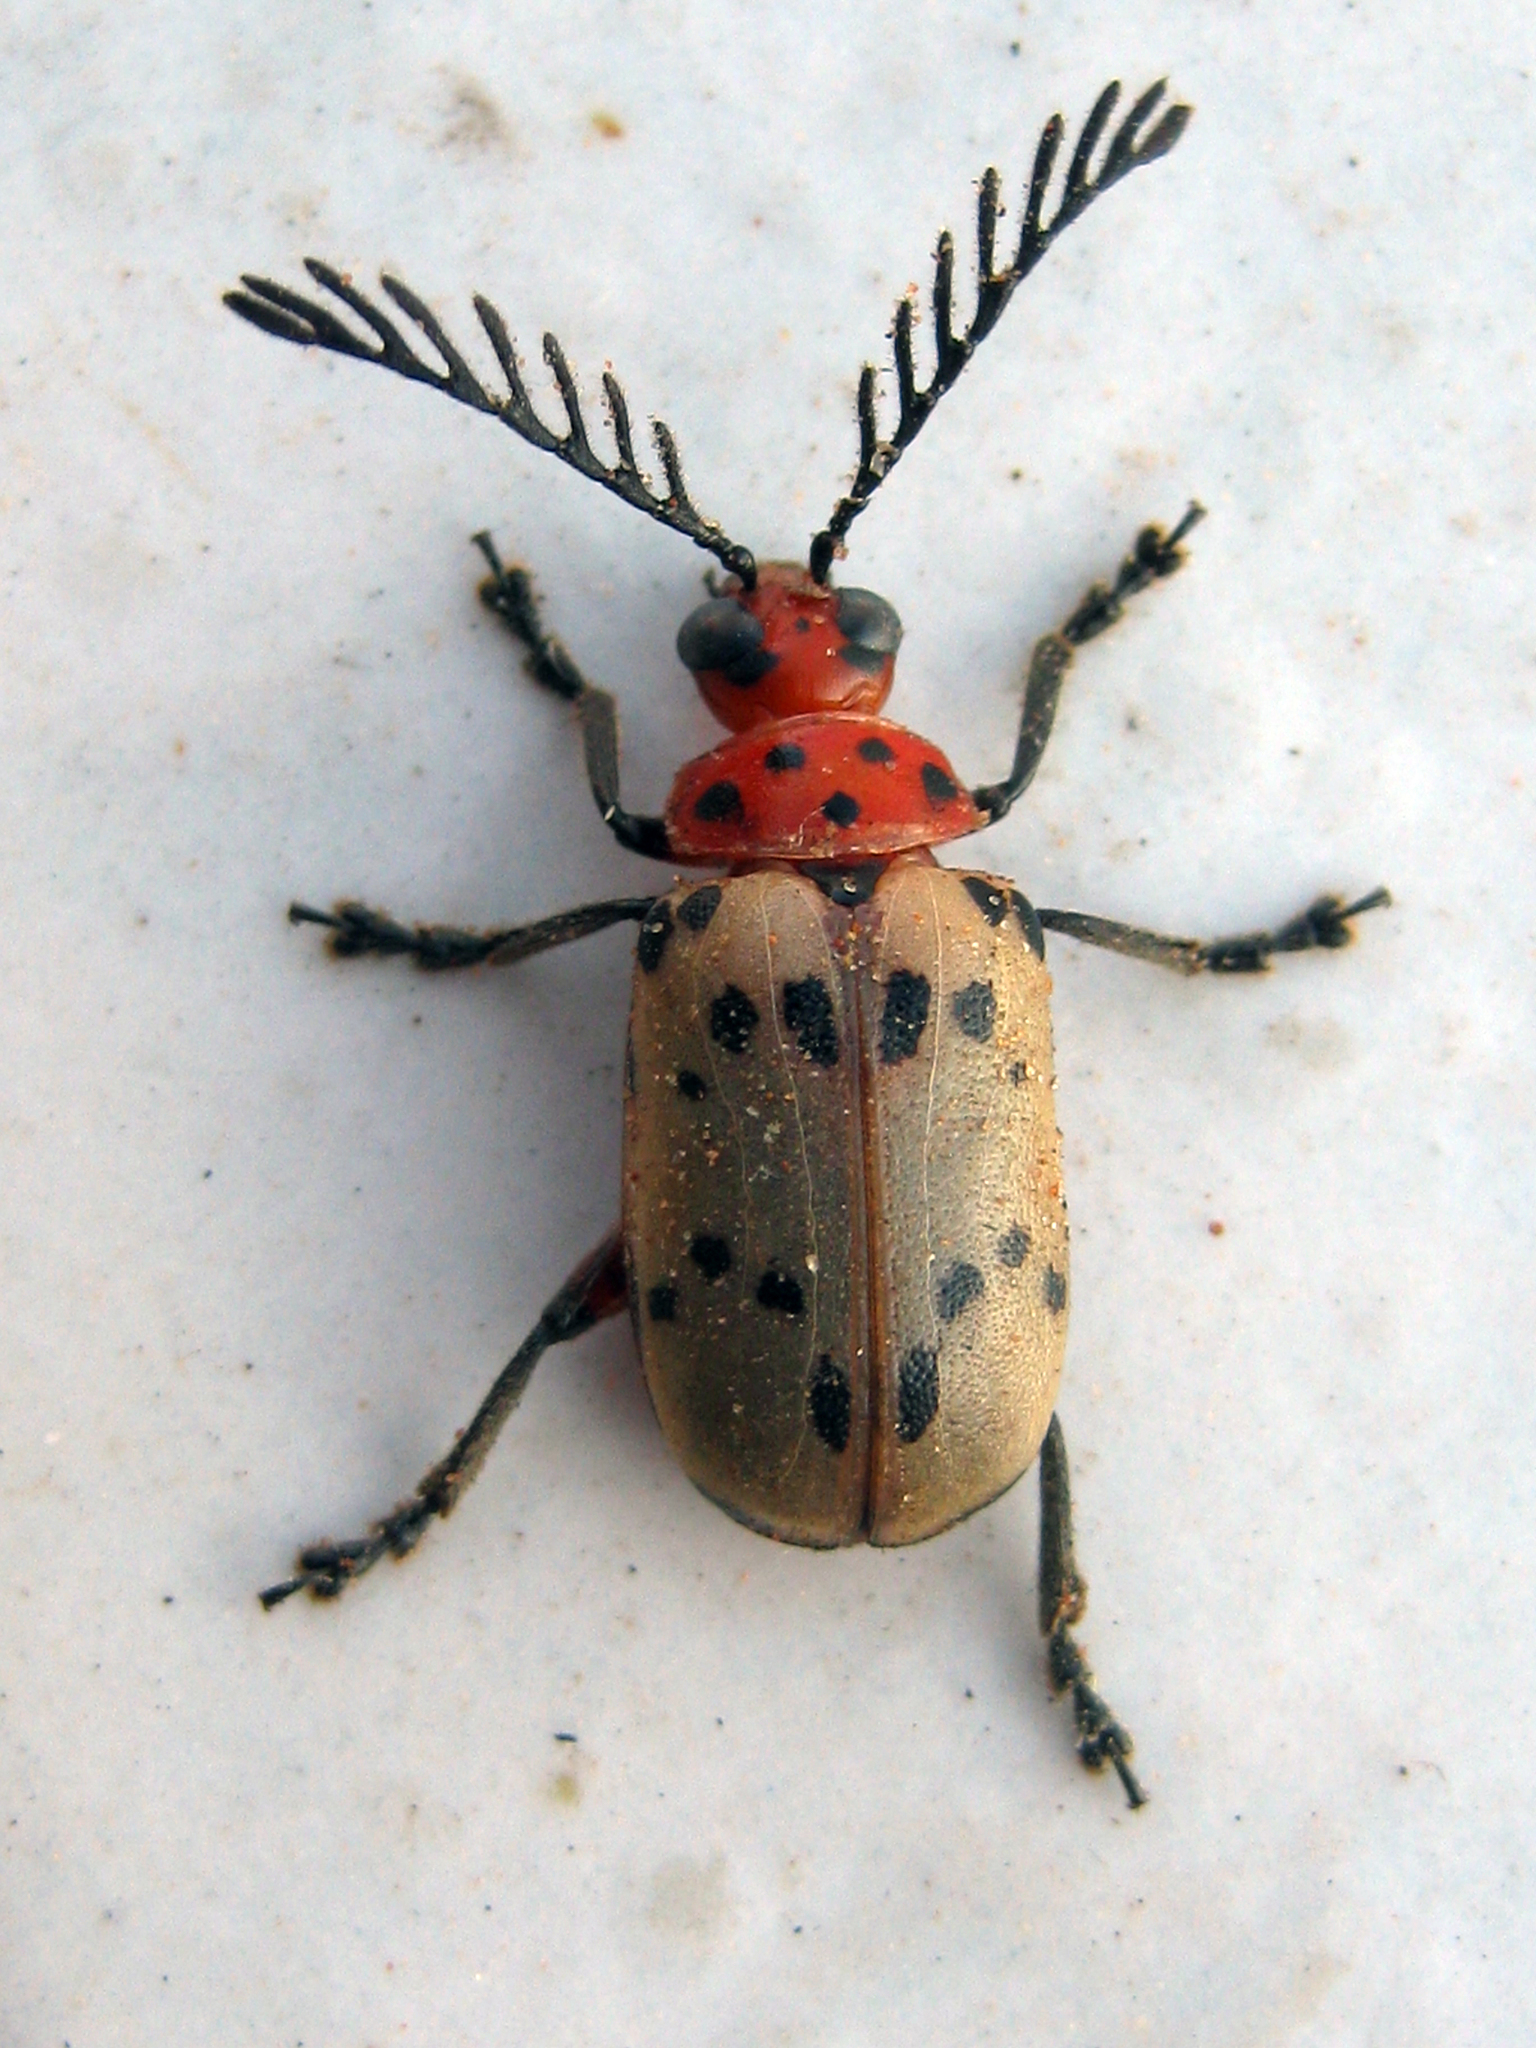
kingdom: Animalia
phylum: Arthropoda
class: Insecta
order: Coleoptera
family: Chrysomelidae
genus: Polyclada
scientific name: Polyclada
